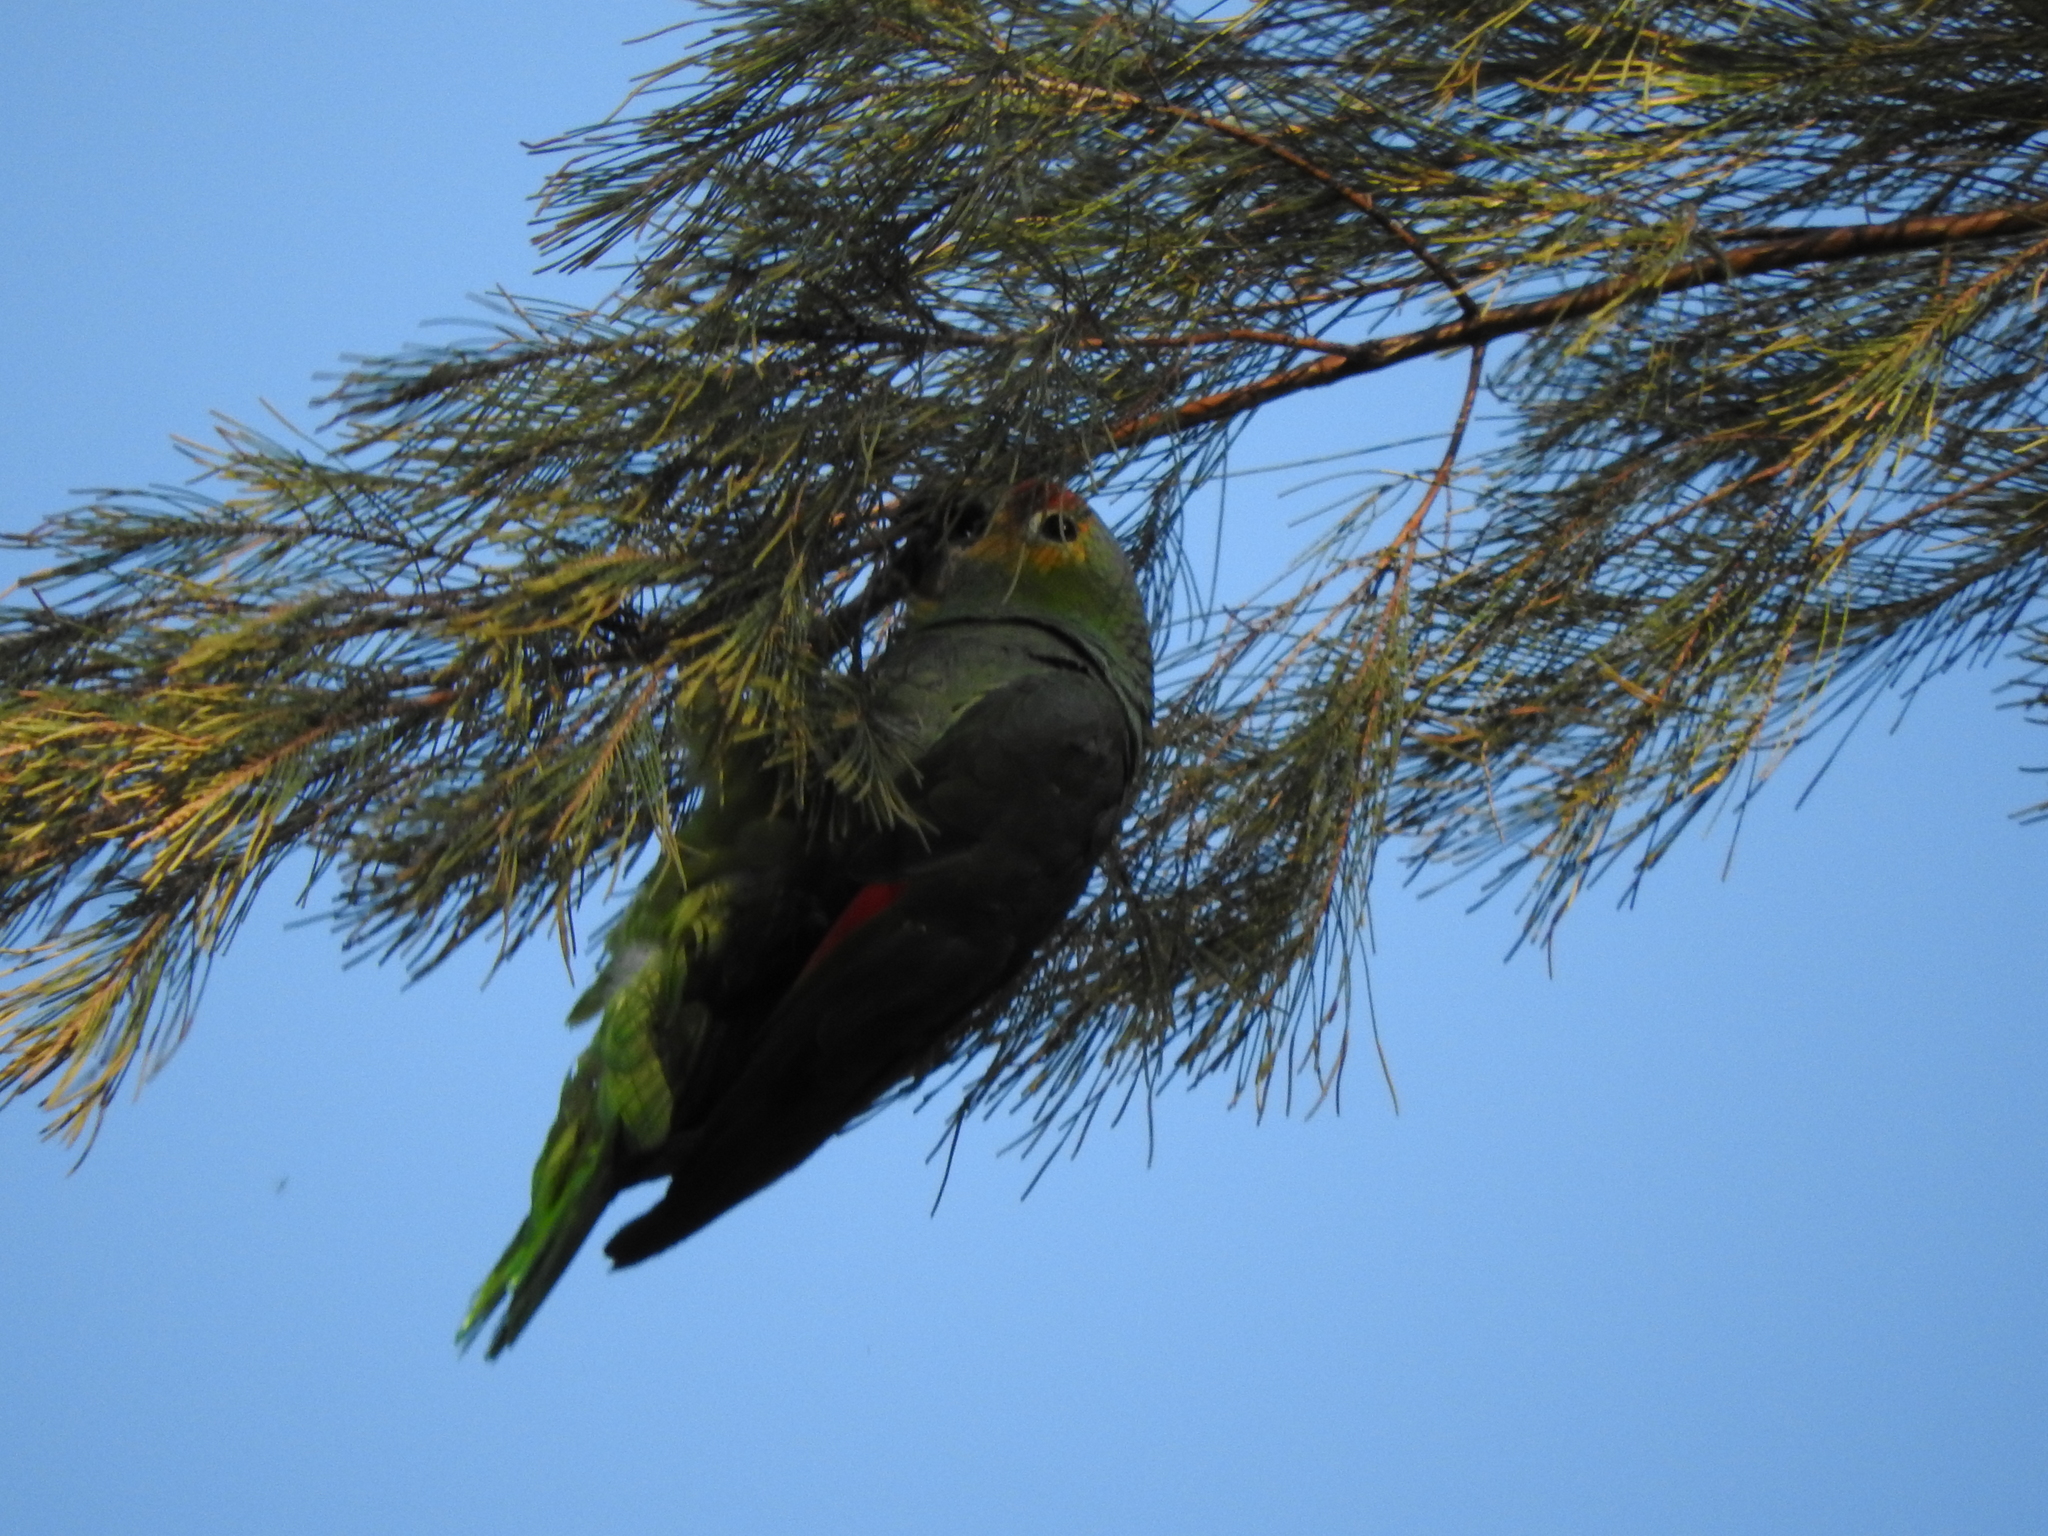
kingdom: Animalia
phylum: Chordata
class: Aves
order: Psittaciformes
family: Psittacidae
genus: Amazona
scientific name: Amazona autumnalis
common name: Red-lored amazon
